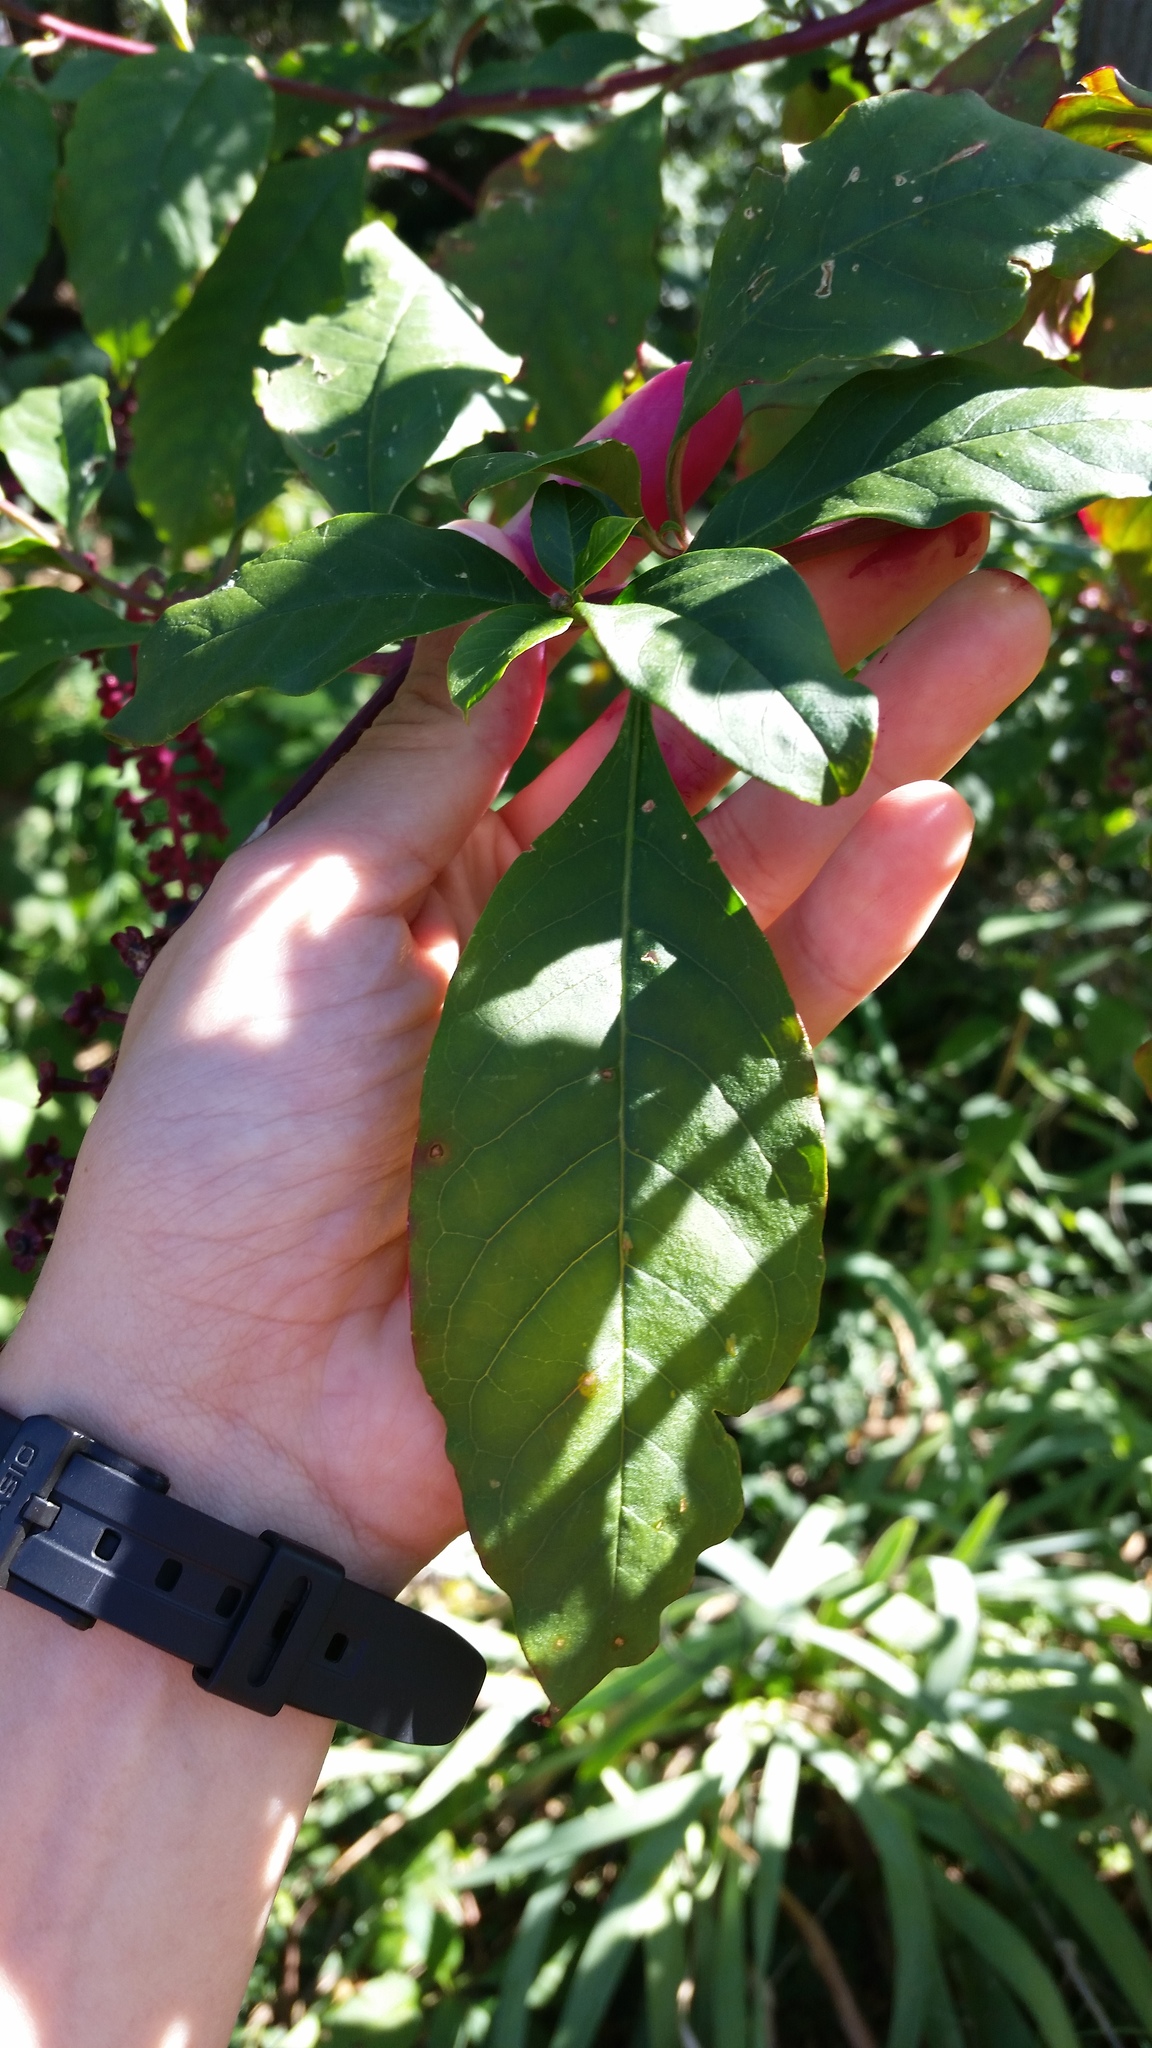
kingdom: Plantae
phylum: Tracheophyta
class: Magnoliopsida
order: Caryophyllales
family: Phytolaccaceae
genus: Phytolacca
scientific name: Phytolacca americana
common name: American pokeweed
